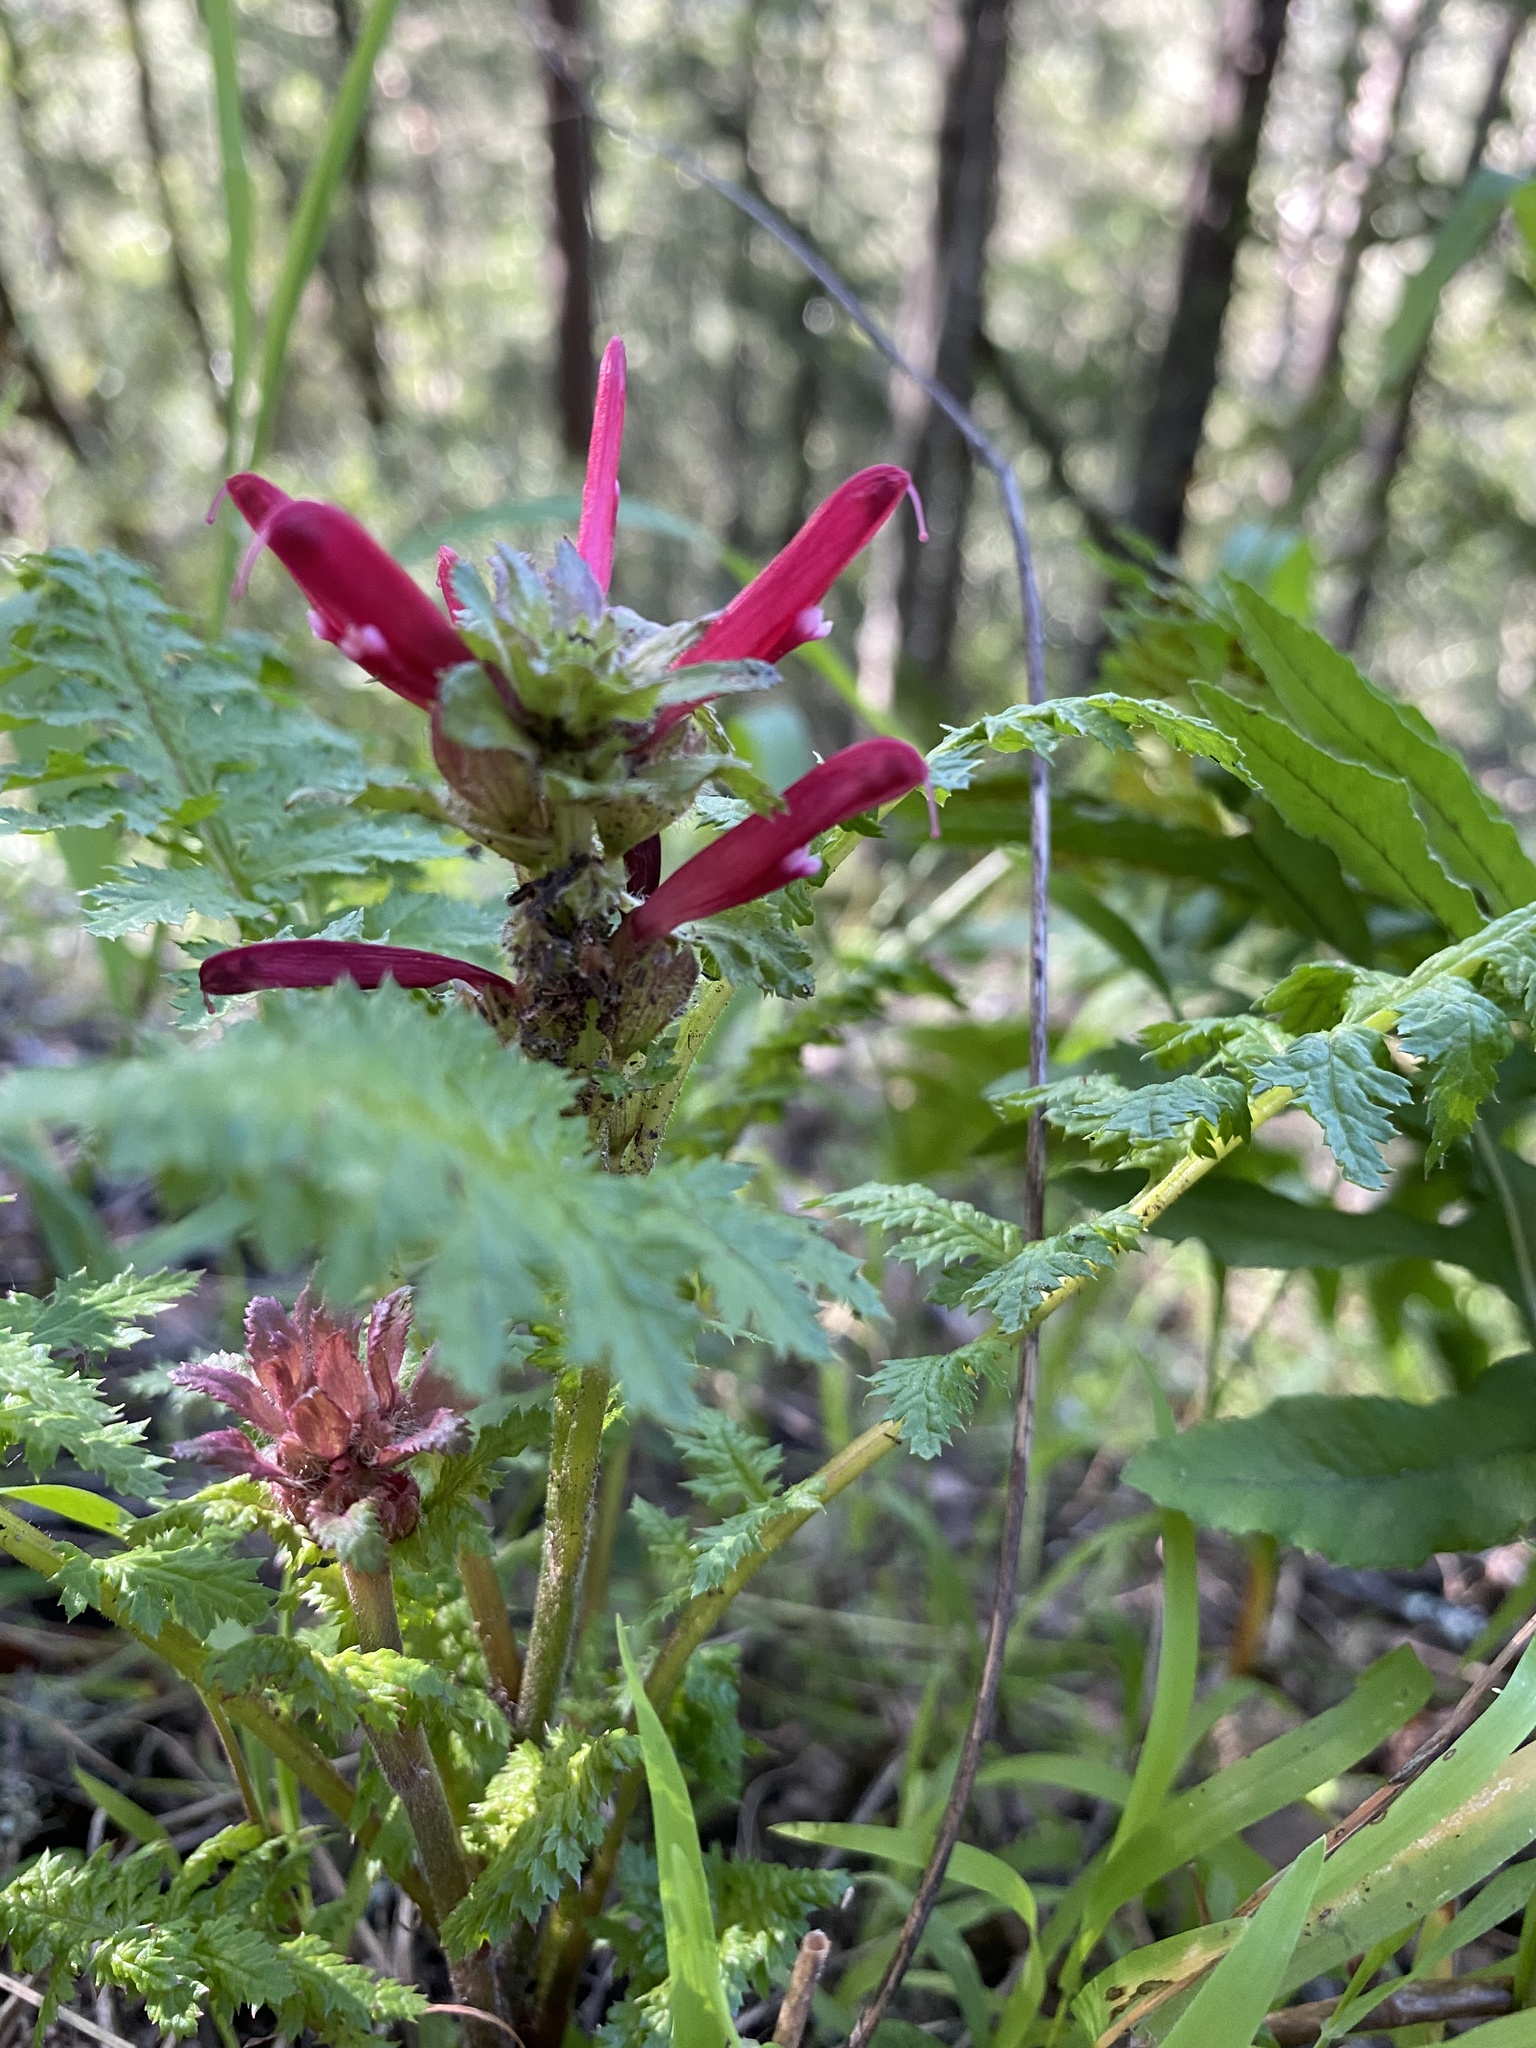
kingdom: Plantae
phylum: Tracheophyta
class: Magnoliopsida
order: Lamiales
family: Orobanchaceae
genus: Pedicularis
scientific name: Pedicularis densiflora
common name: Indian warrior
